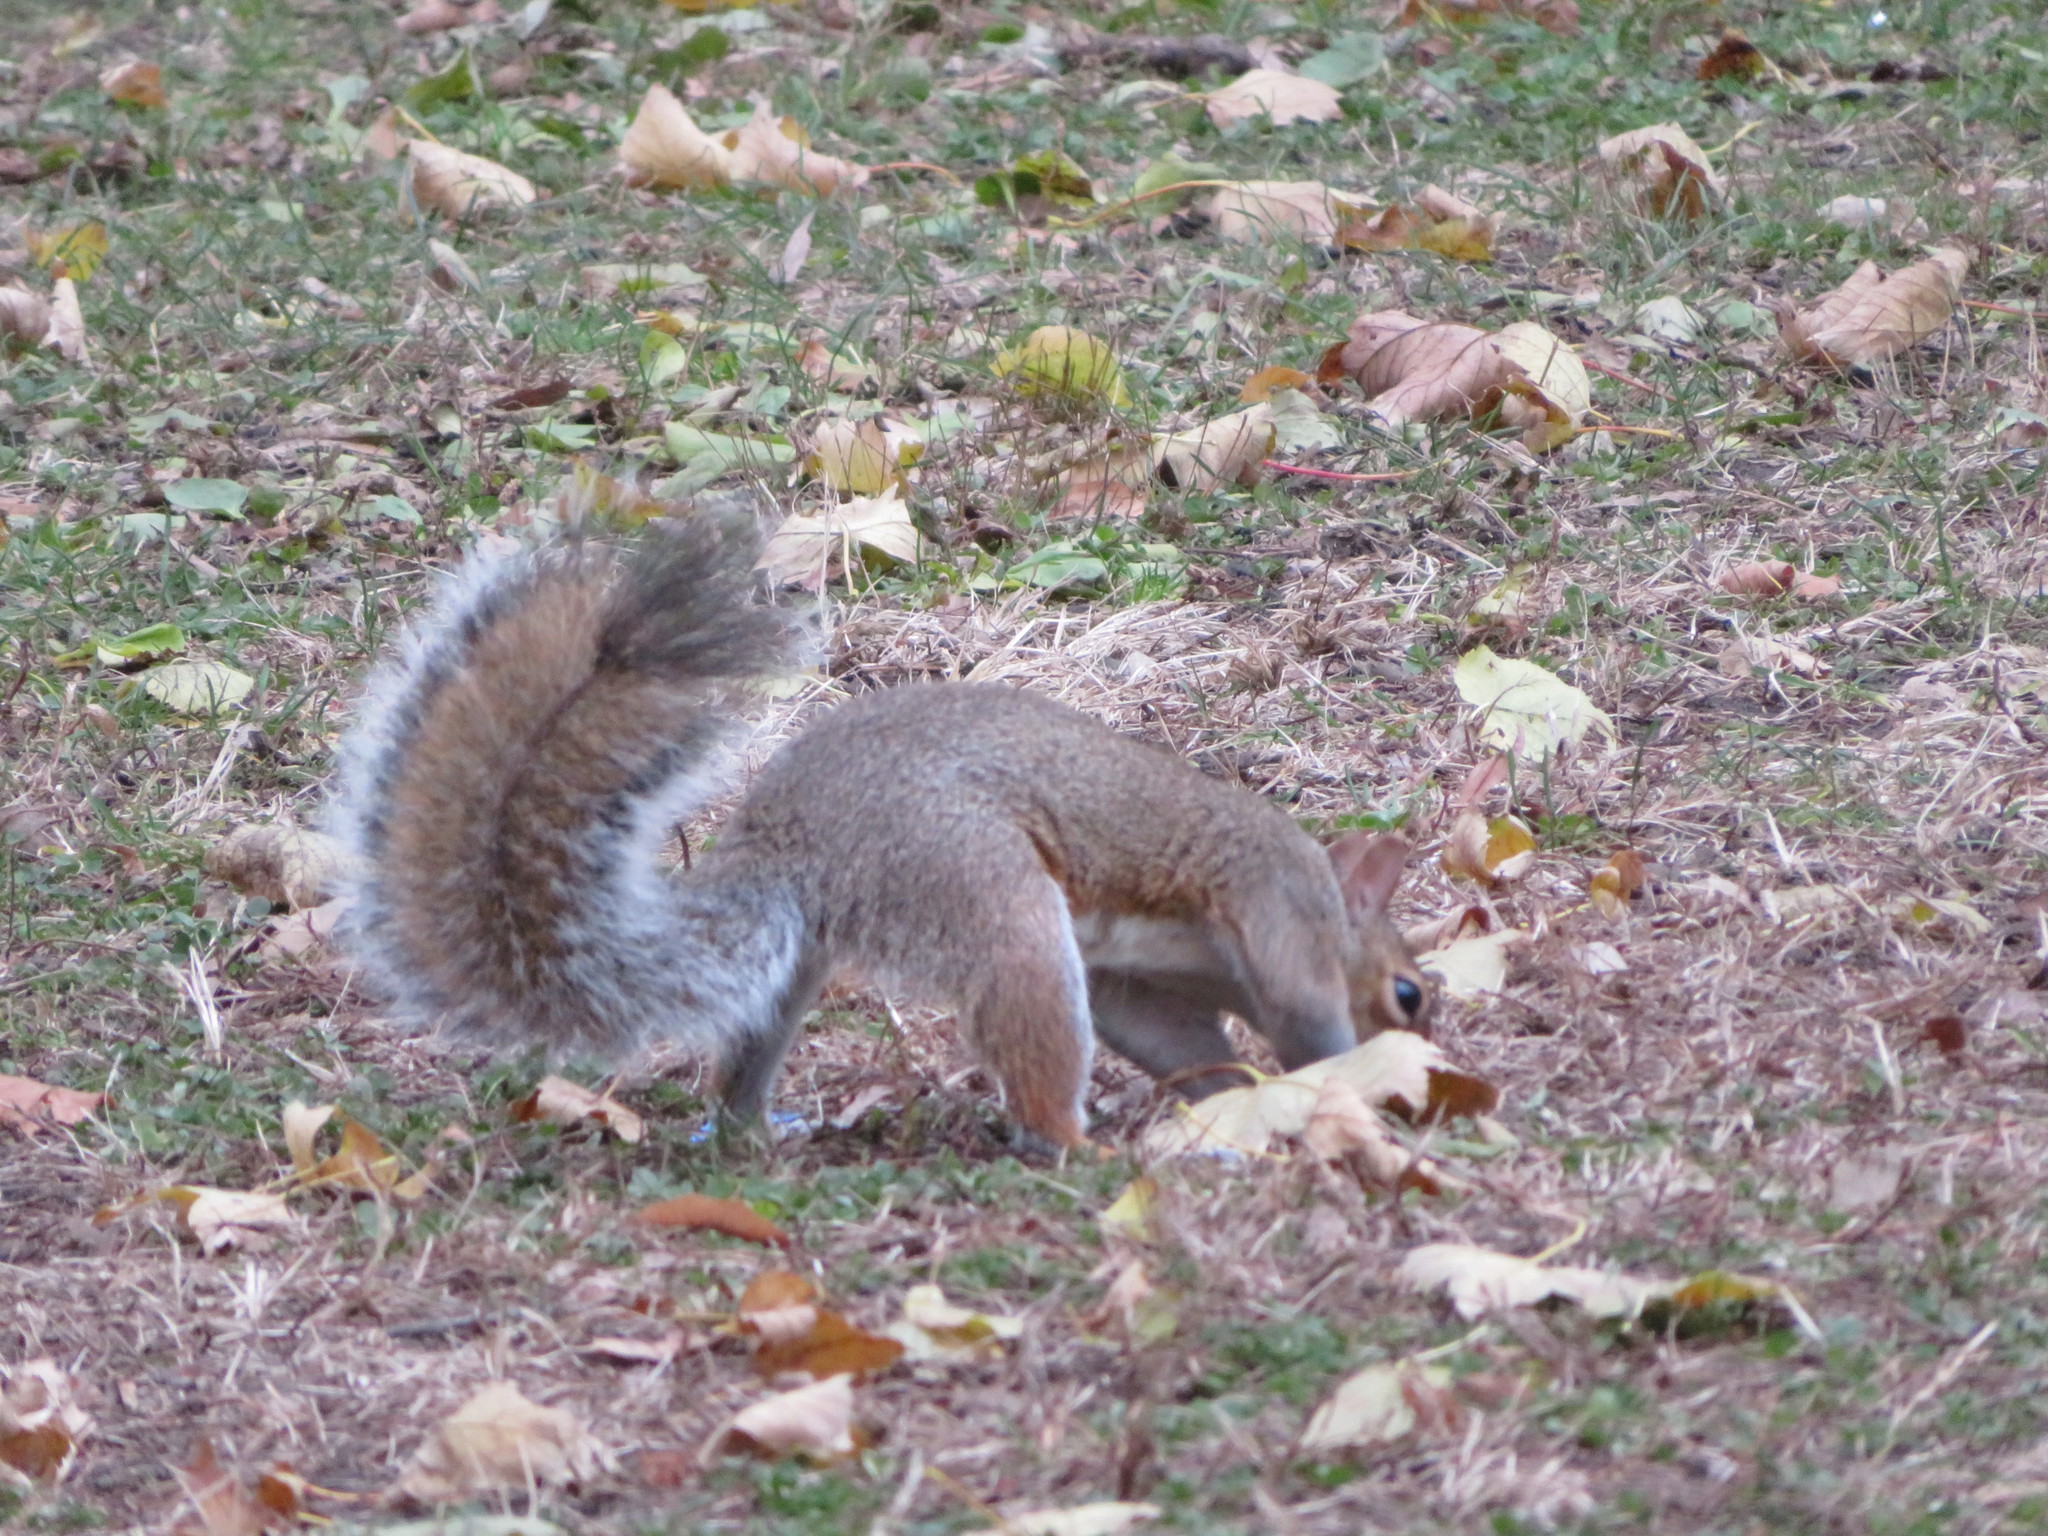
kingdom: Animalia
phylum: Chordata
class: Mammalia
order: Rodentia
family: Sciuridae
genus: Sciurus
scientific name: Sciurus carolinensis
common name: Eastern gray squirrel
